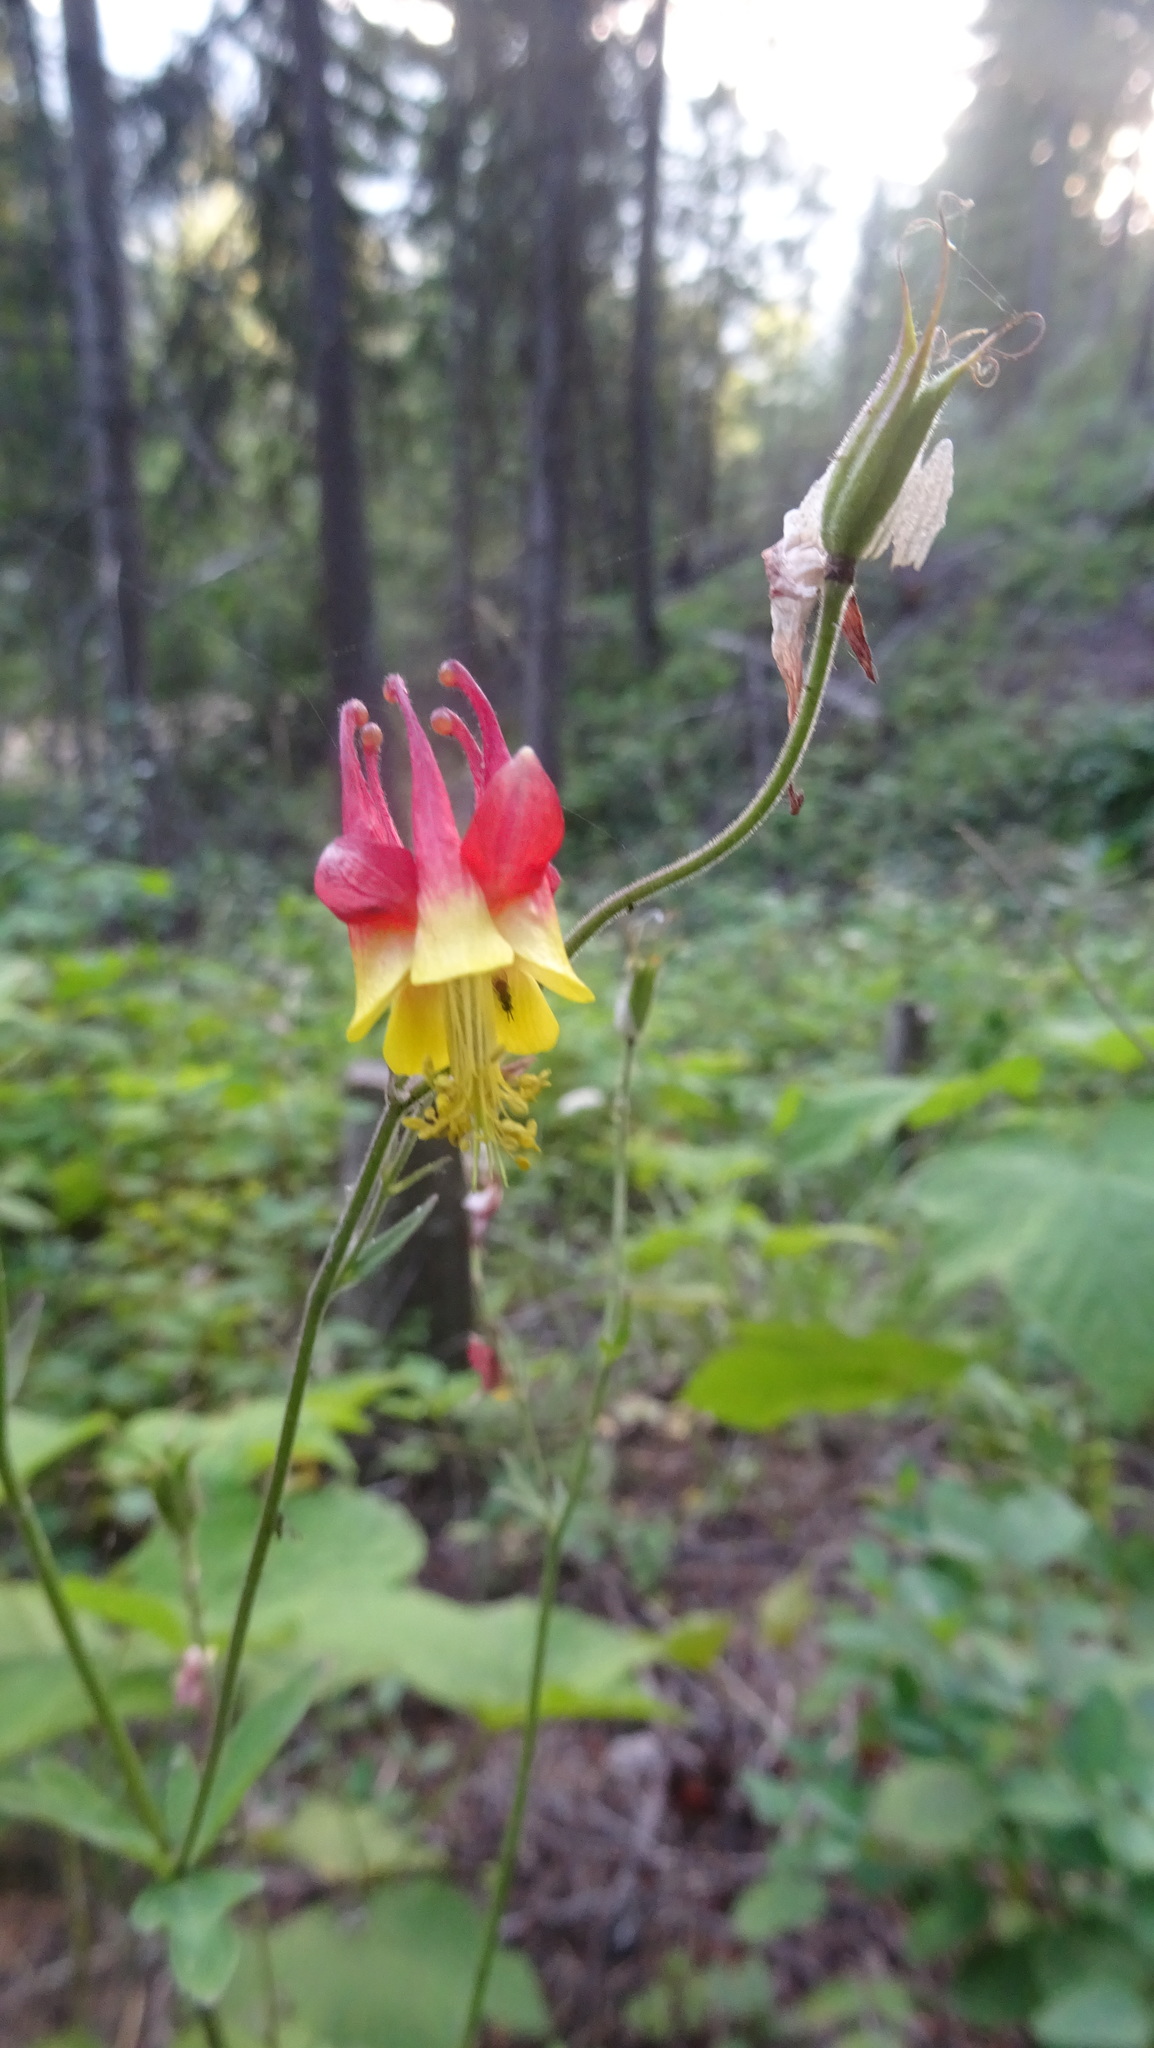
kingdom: Plantae
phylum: Tracheophyta
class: Magnoliopsida
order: Ranunculales
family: Ranunculaceae
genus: Aquilegia
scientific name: Aquilegia formosa
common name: Sitka columbine
